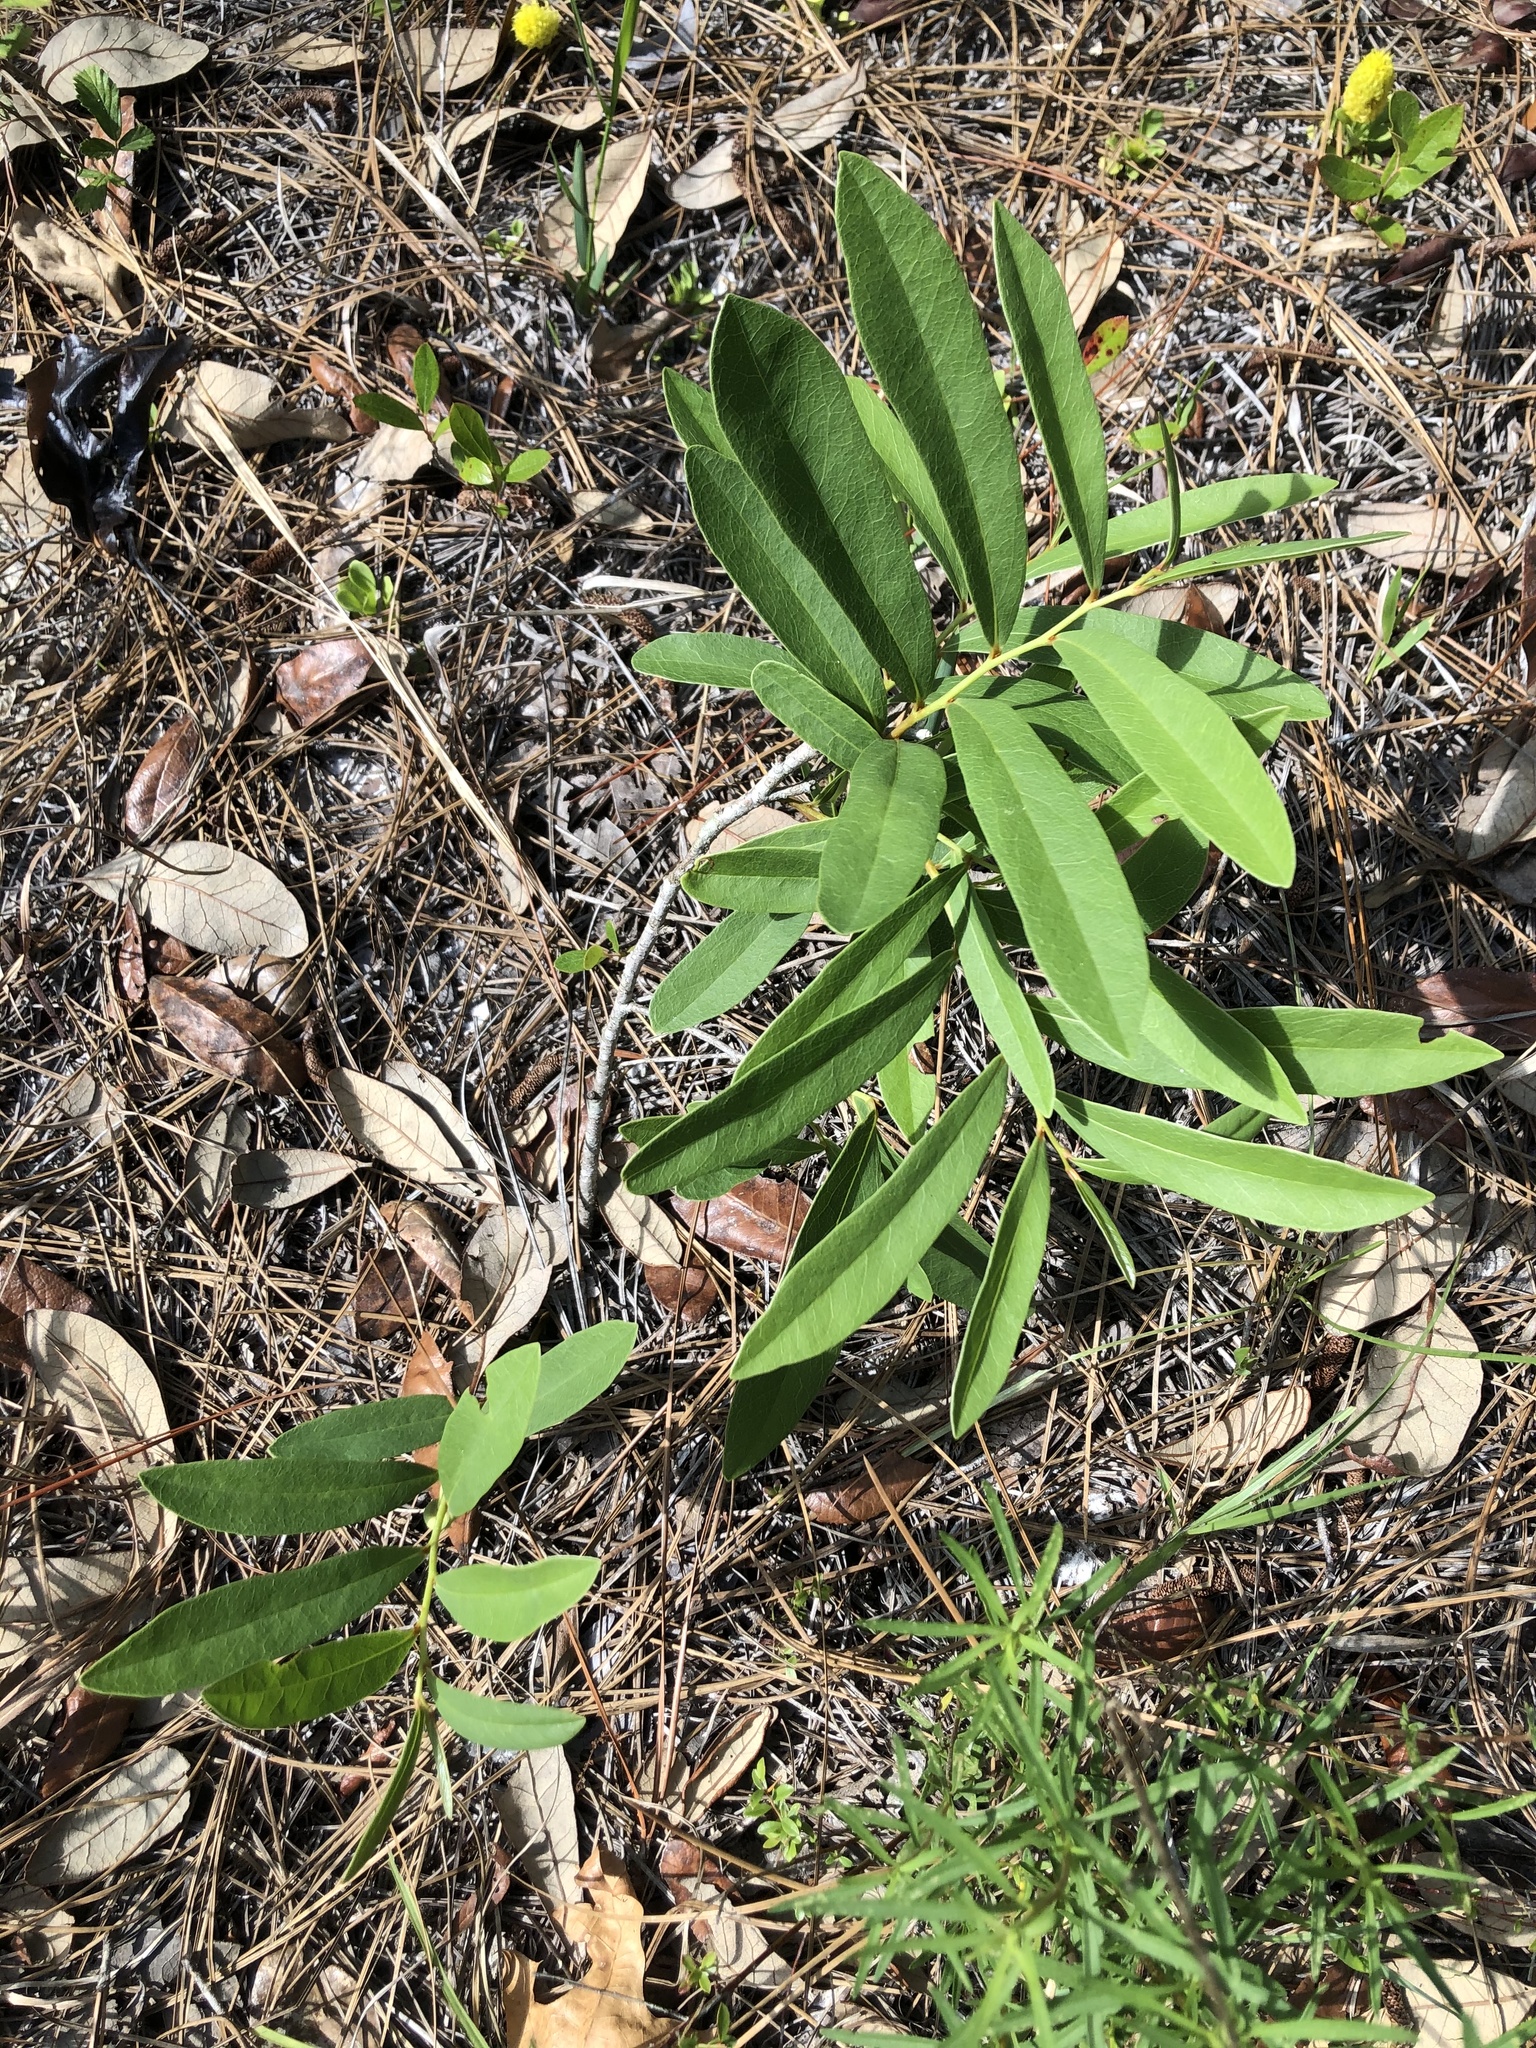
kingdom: Plantae
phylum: Tracheophyta
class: Magnoliopsida
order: Magnoliales
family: Annonaceae
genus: Asimina
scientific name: Asimina longifolia
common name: Polecatbush
